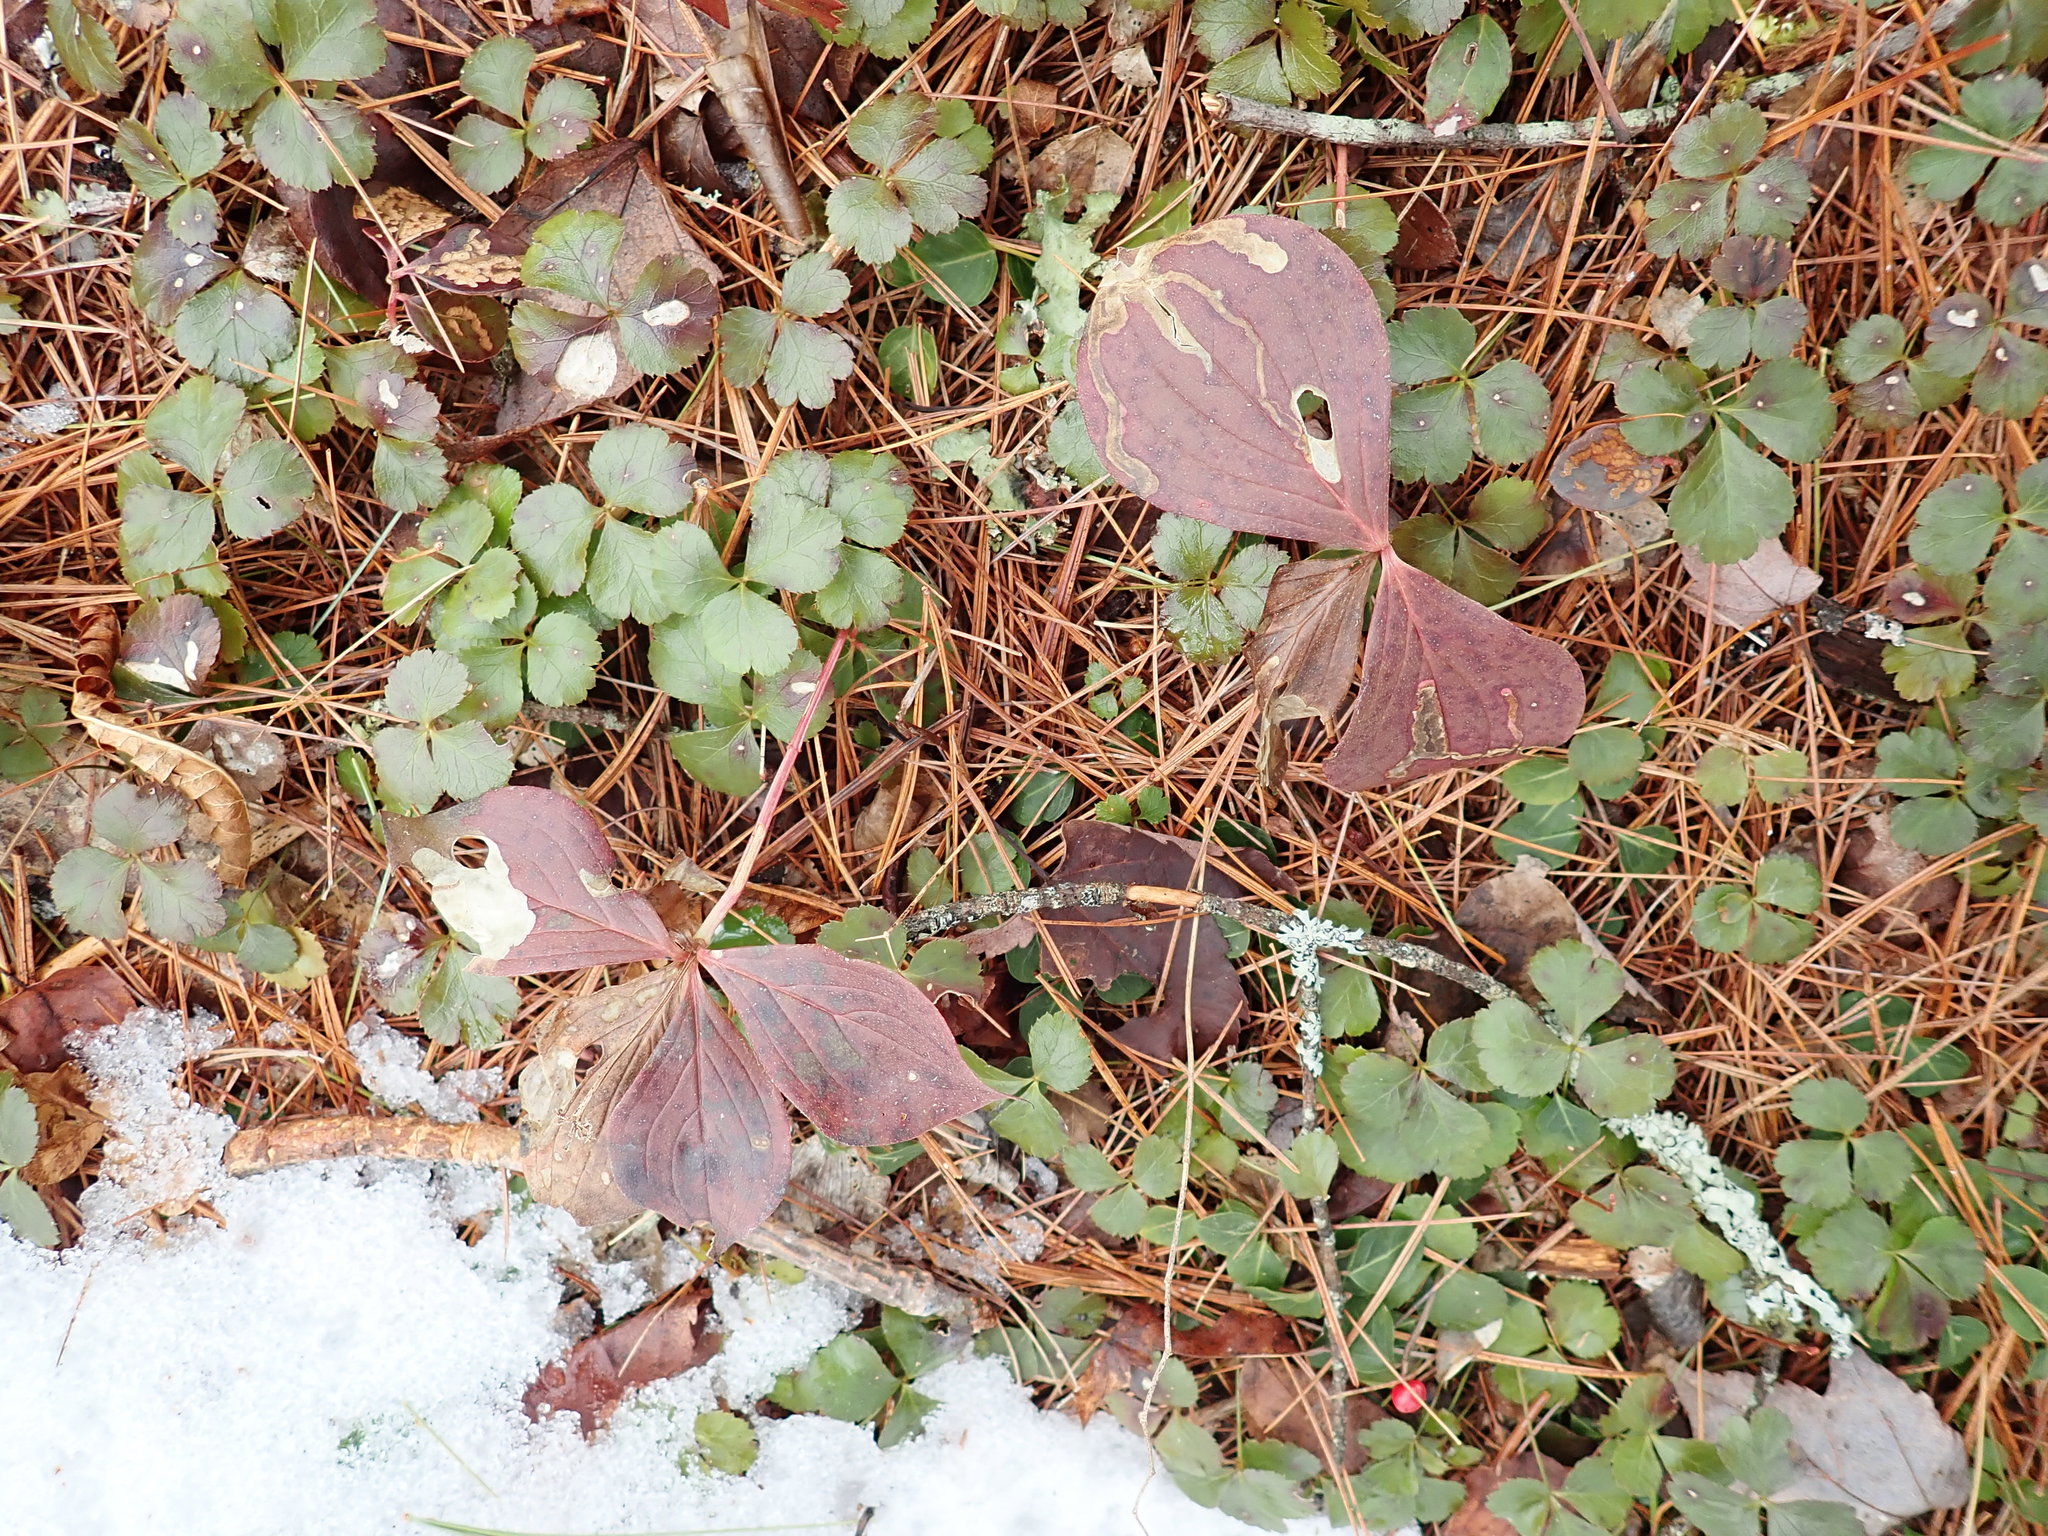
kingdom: Plantae
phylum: Tracheophyta
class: Magnoliopsida
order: Cornales
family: Cornaceae
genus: Cornus
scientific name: Cornus canadensis
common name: Creeping dogwood
